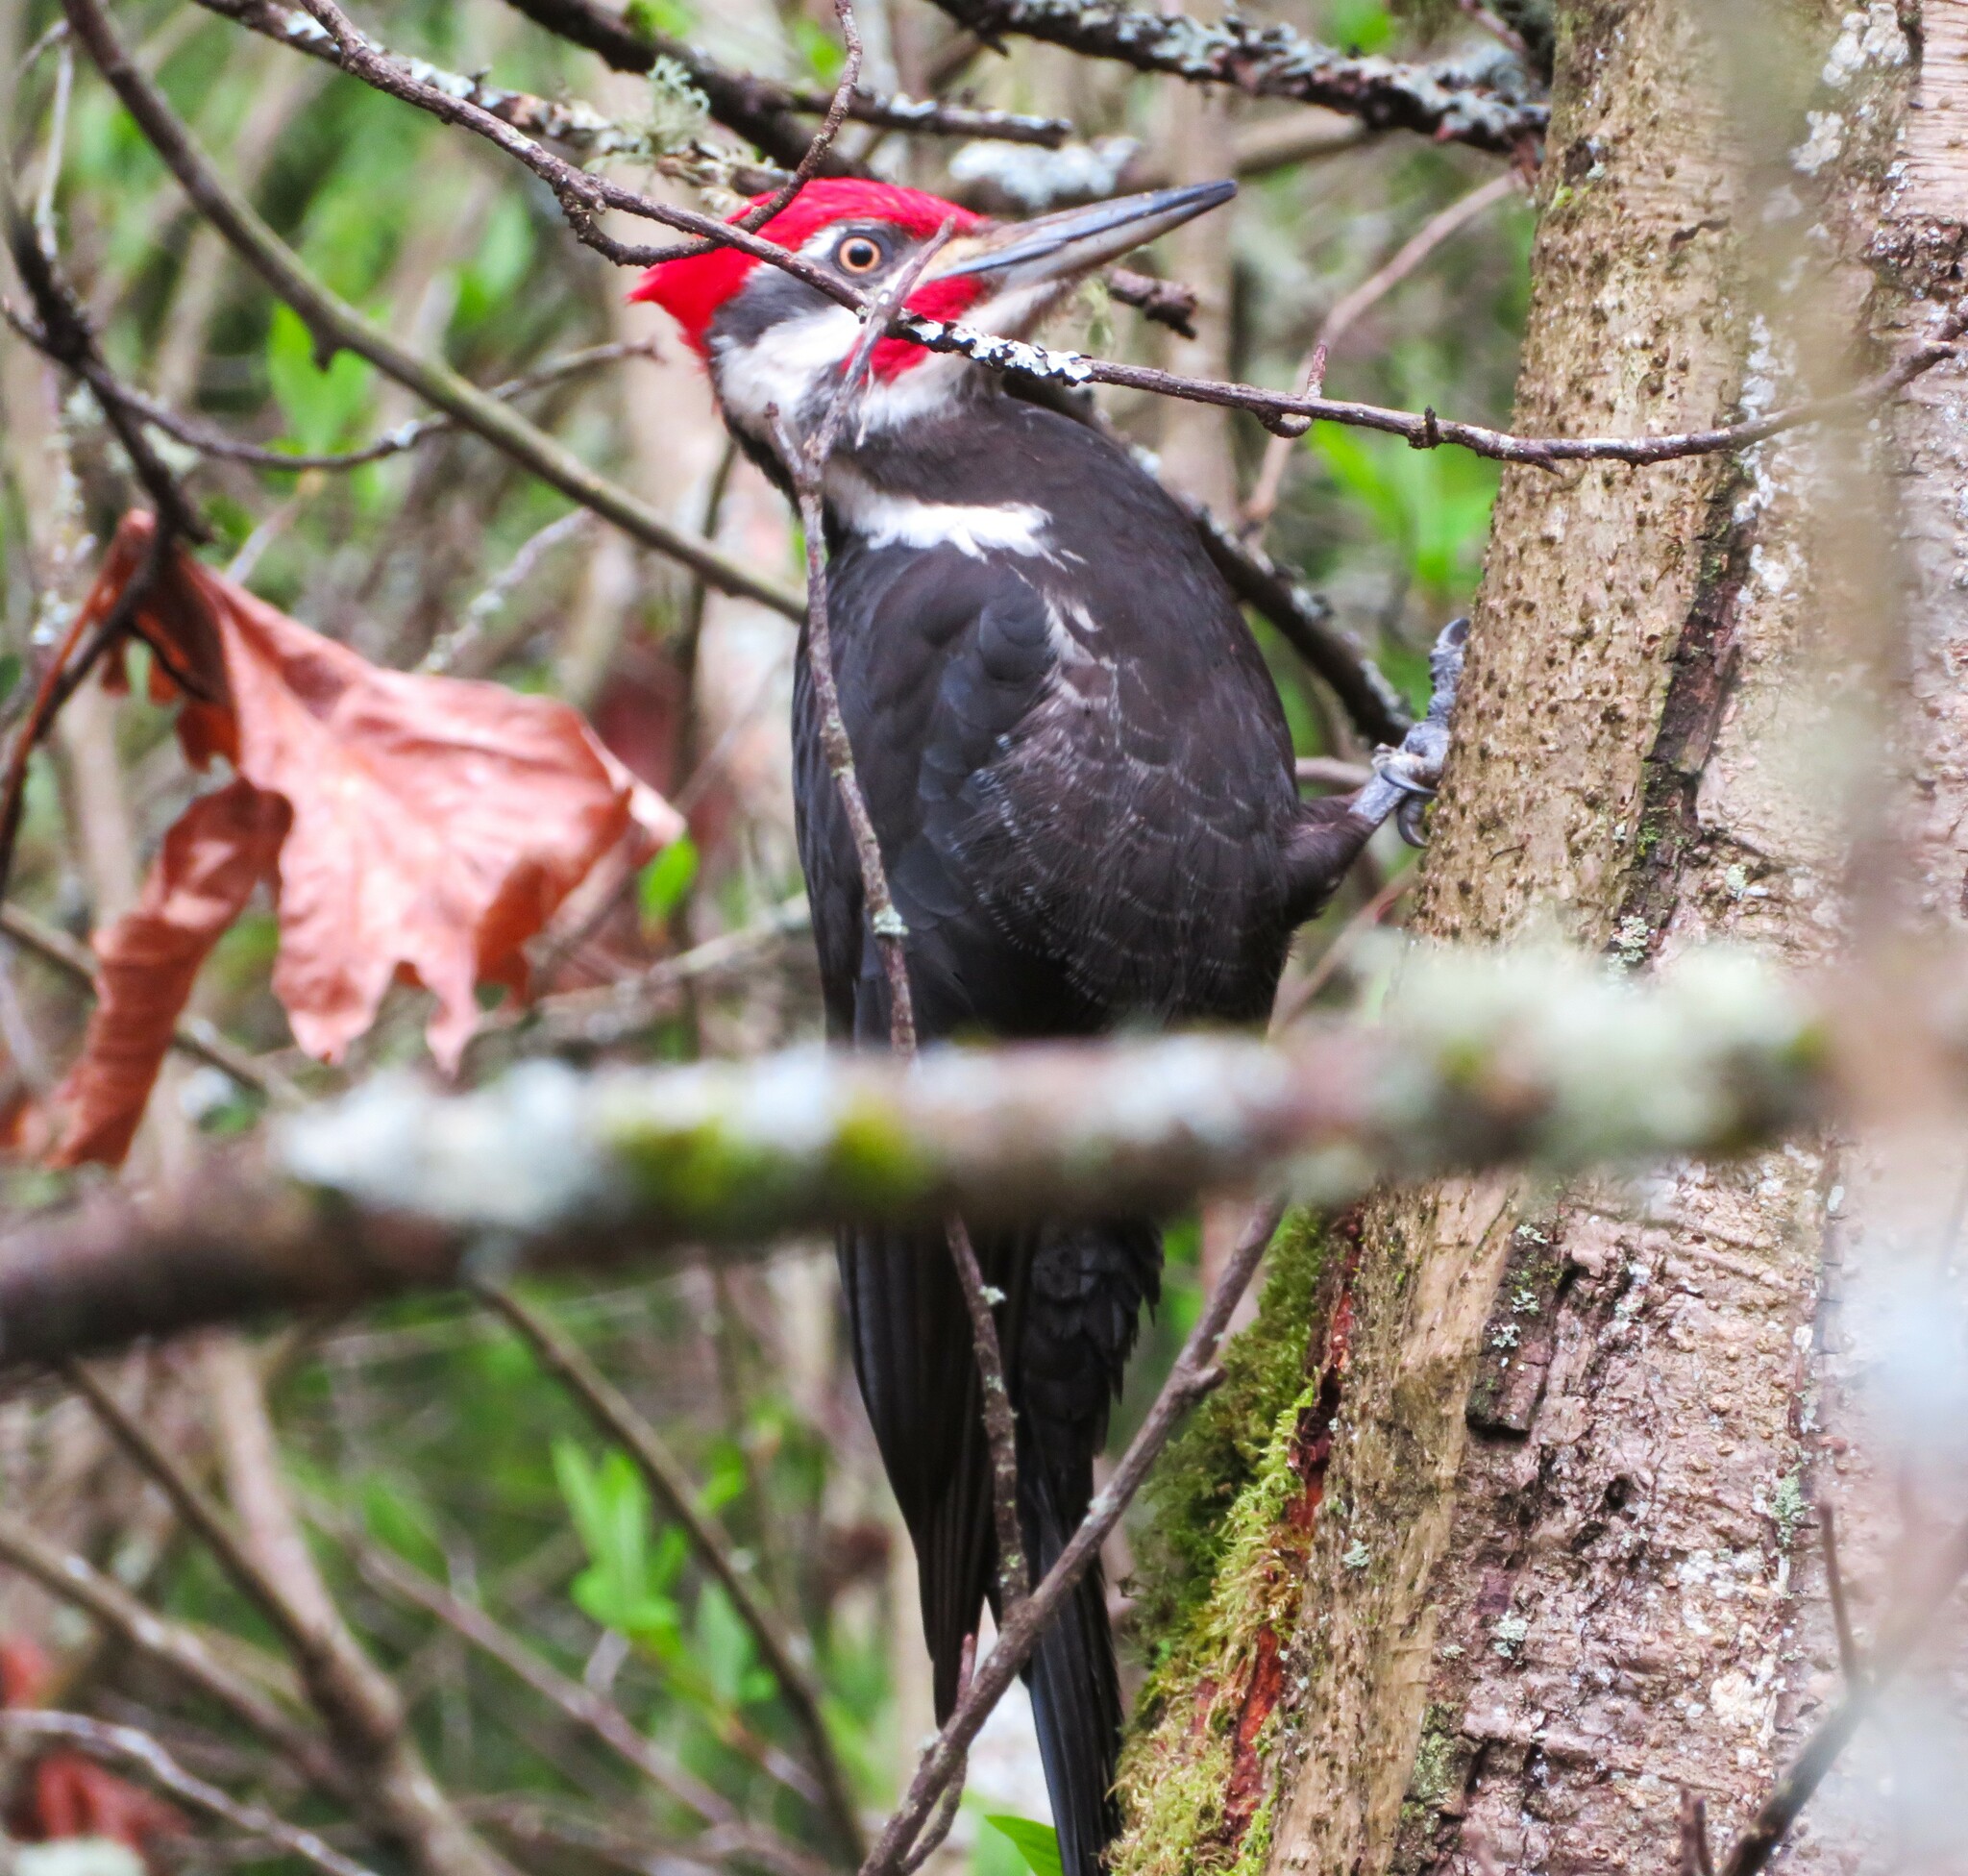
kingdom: Animalia
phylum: Chordata
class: Aves
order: Piciformes
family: Picidae
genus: Dryocopus
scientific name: Dryocopus pileatus
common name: Pileated woodpecker
